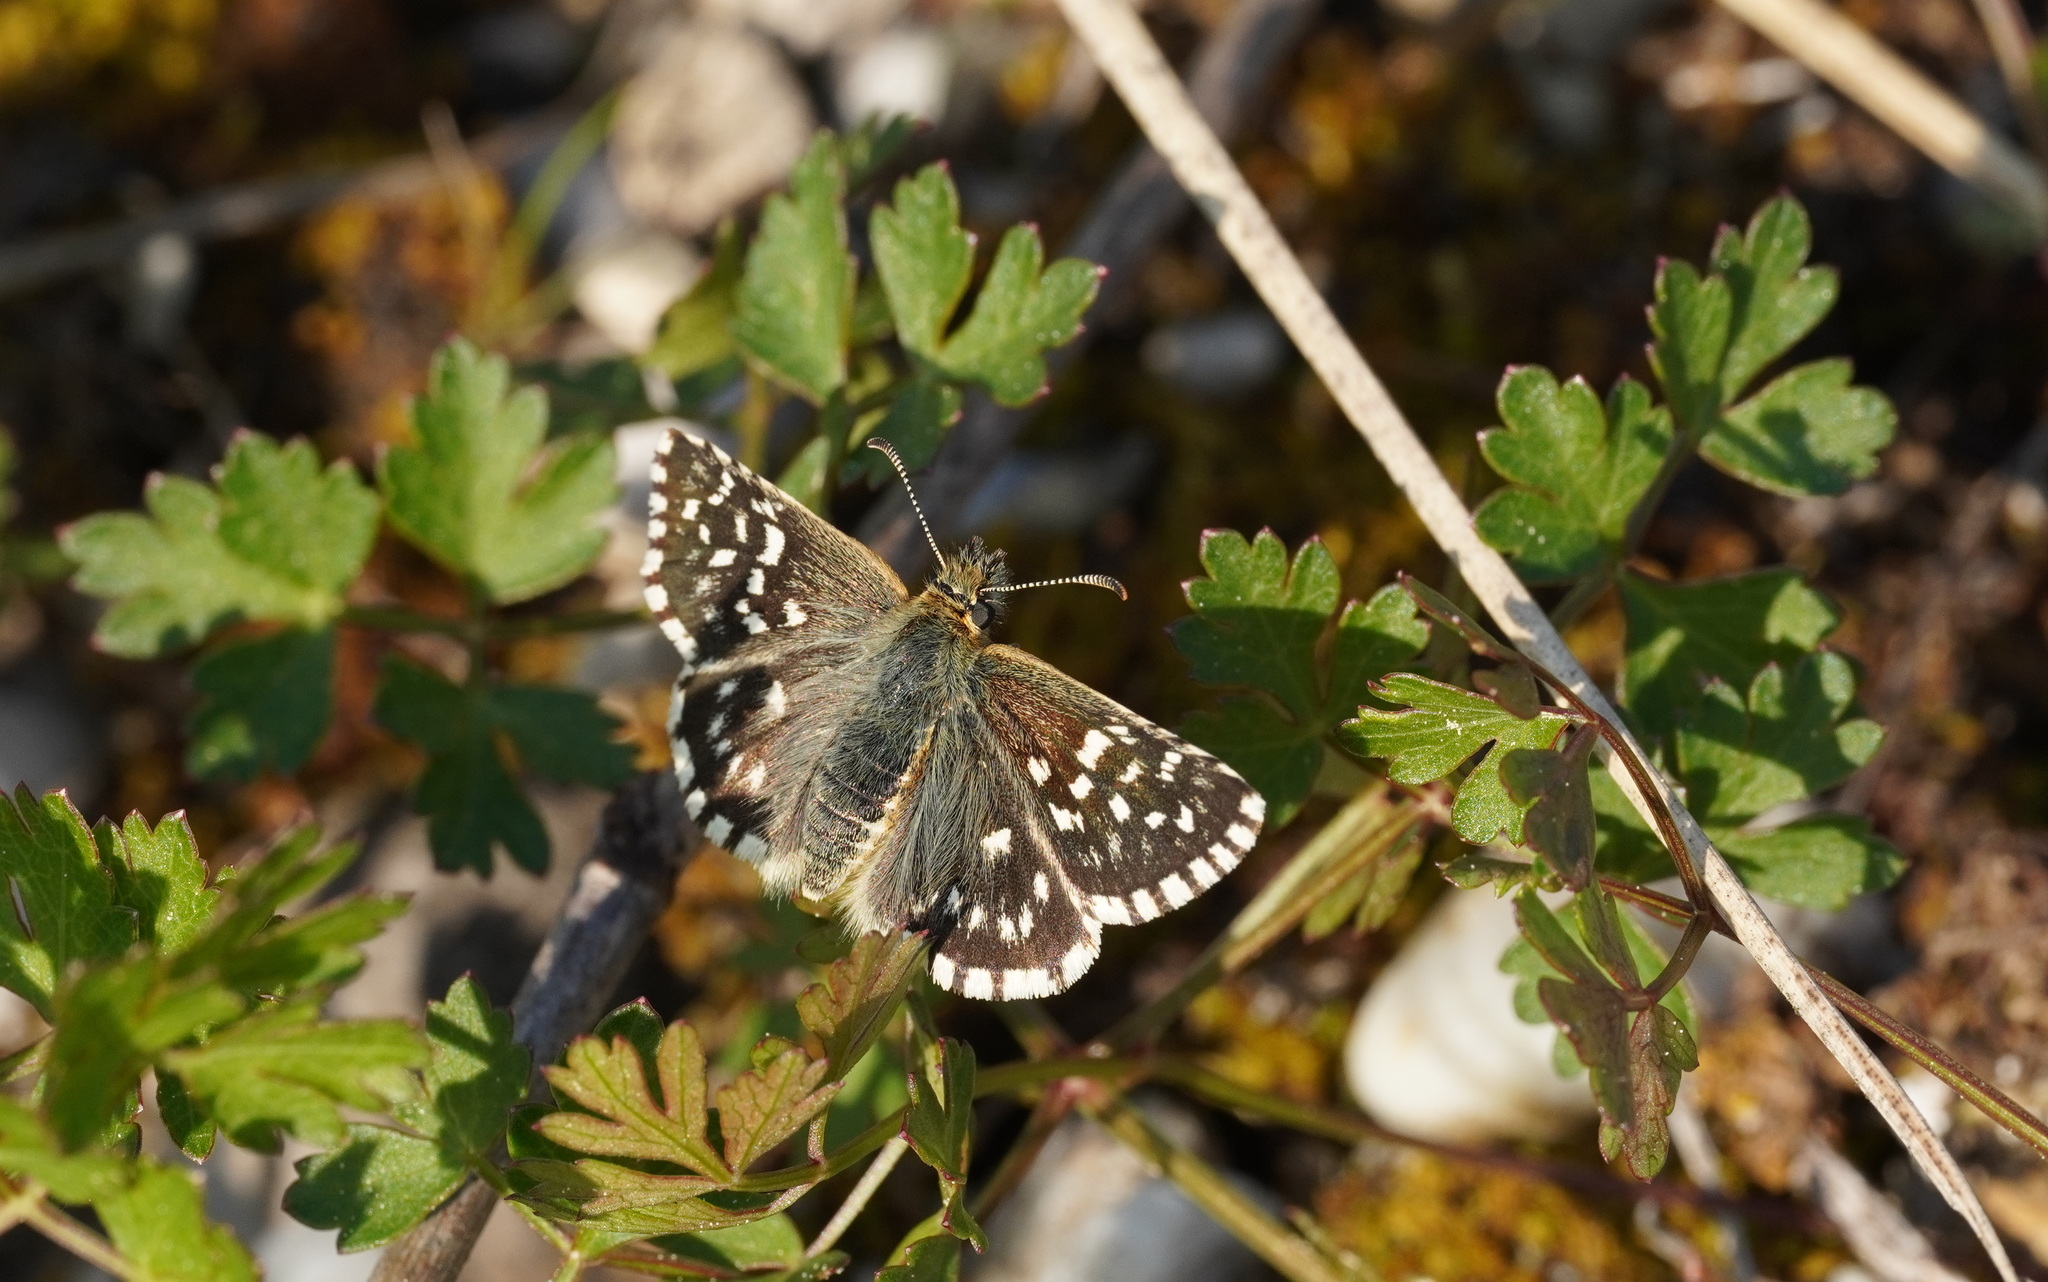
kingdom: Animalia
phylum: Arthropoda
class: Insecta
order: Lepidoptera
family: Hesperiidae
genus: Pyrgus
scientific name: Pyrgus malvae
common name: Grizzled skipper
